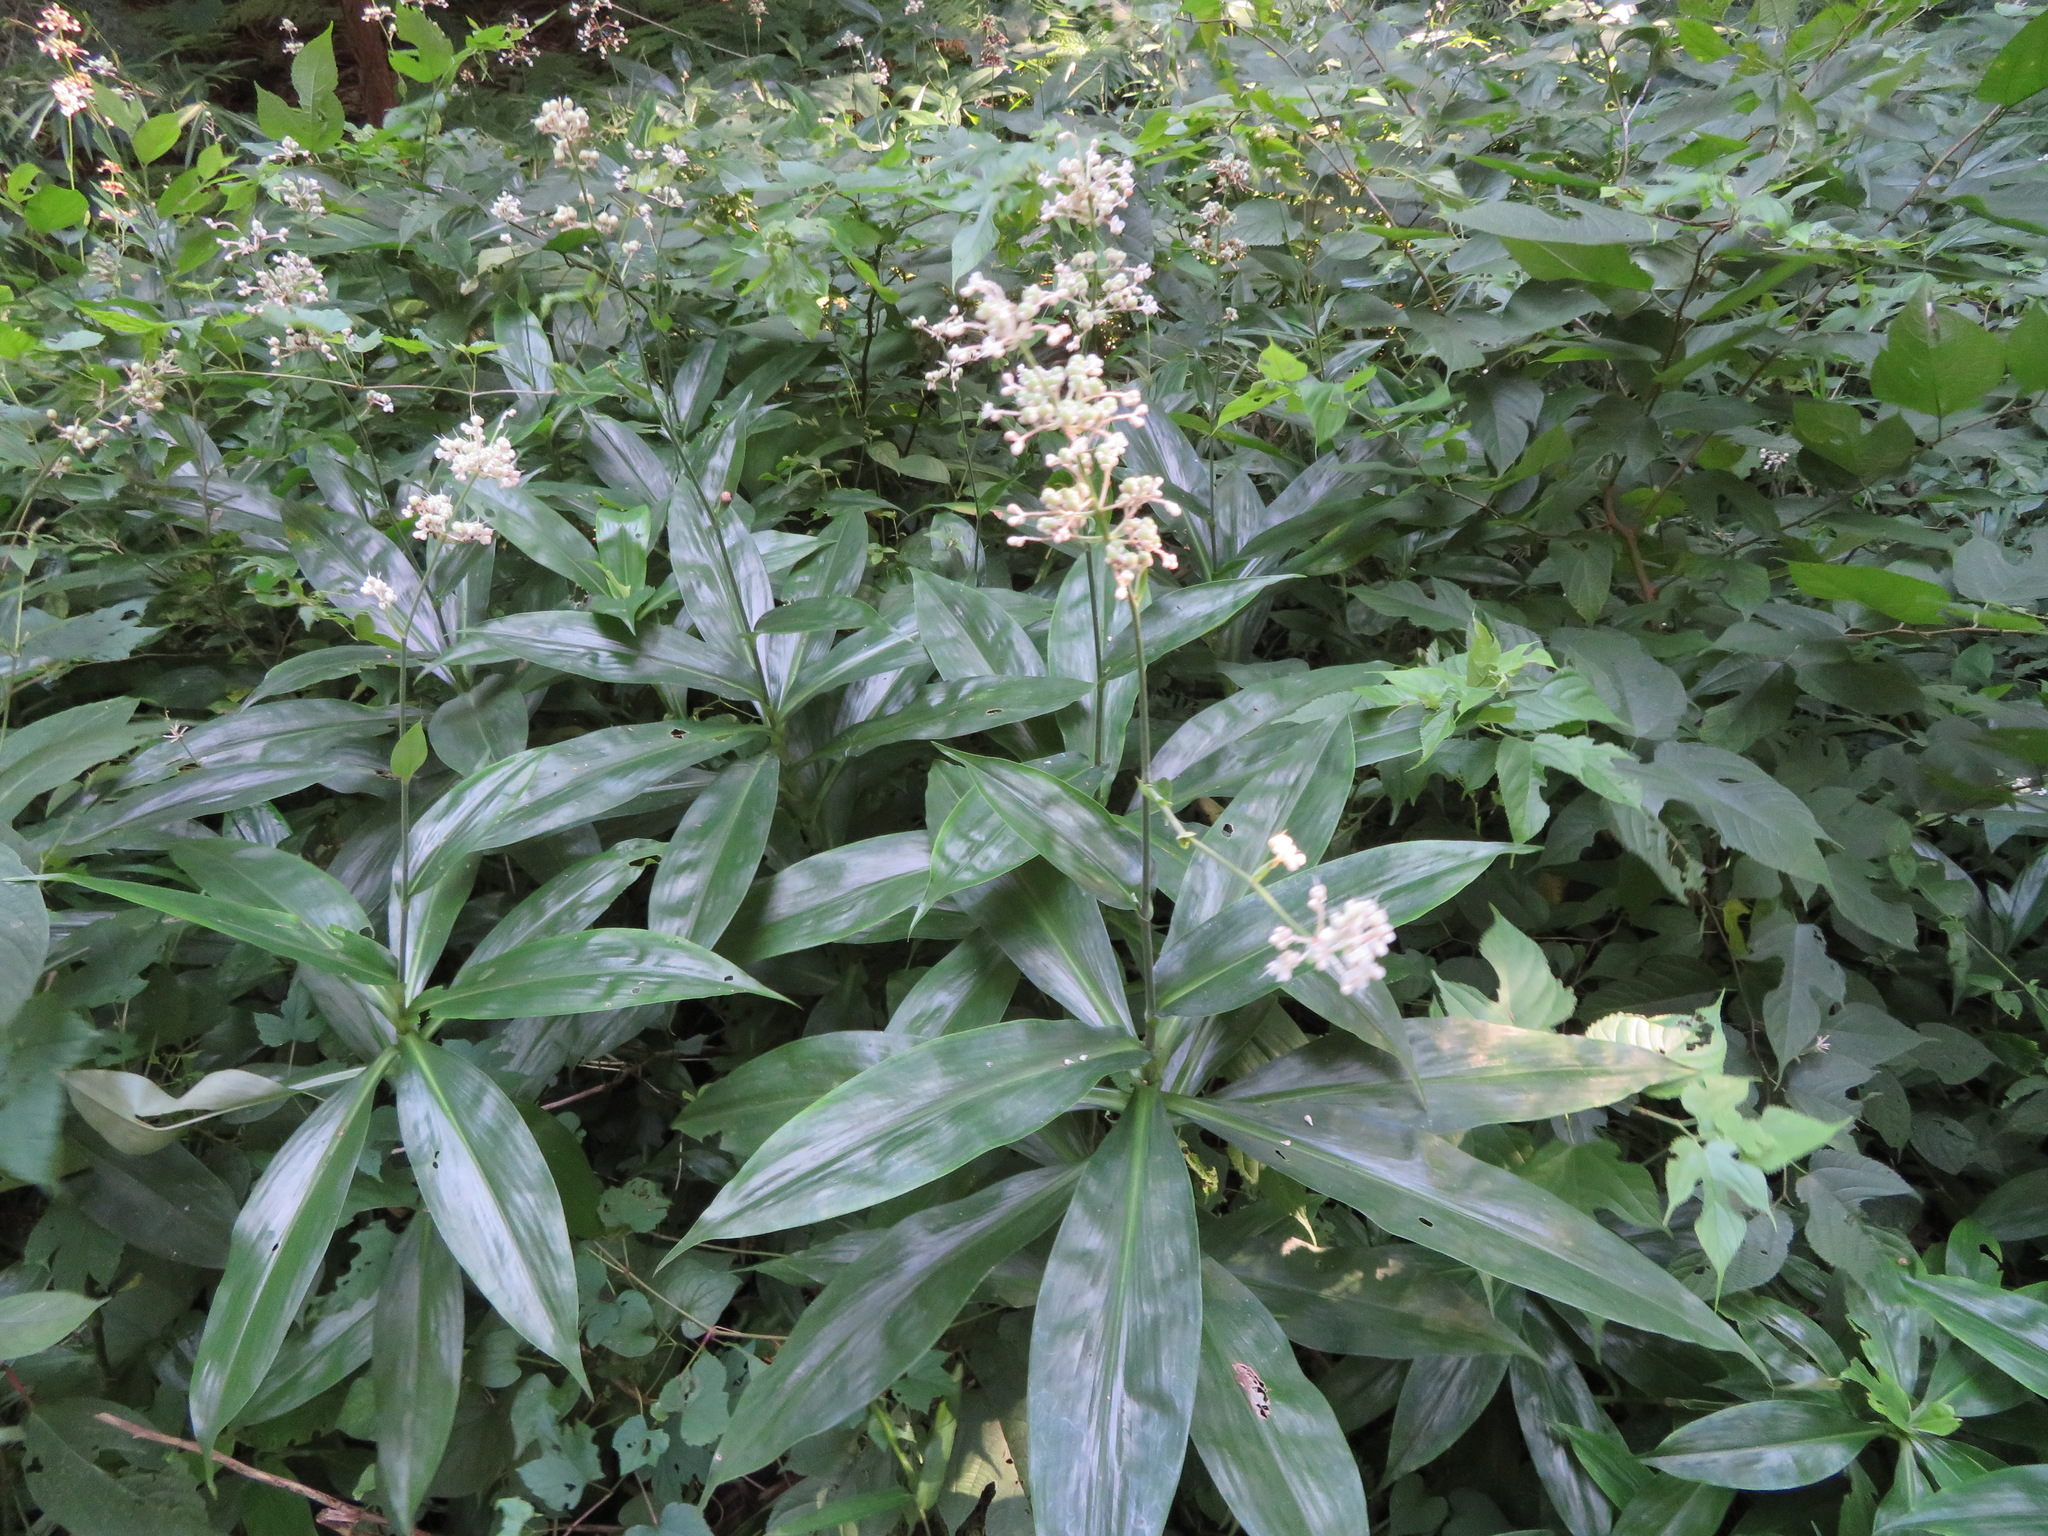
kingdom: Plantae
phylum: Tracheophyta
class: Liliopsida
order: Commelinales
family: Commelinaceae
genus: Pollia
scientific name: Pollia japonica
